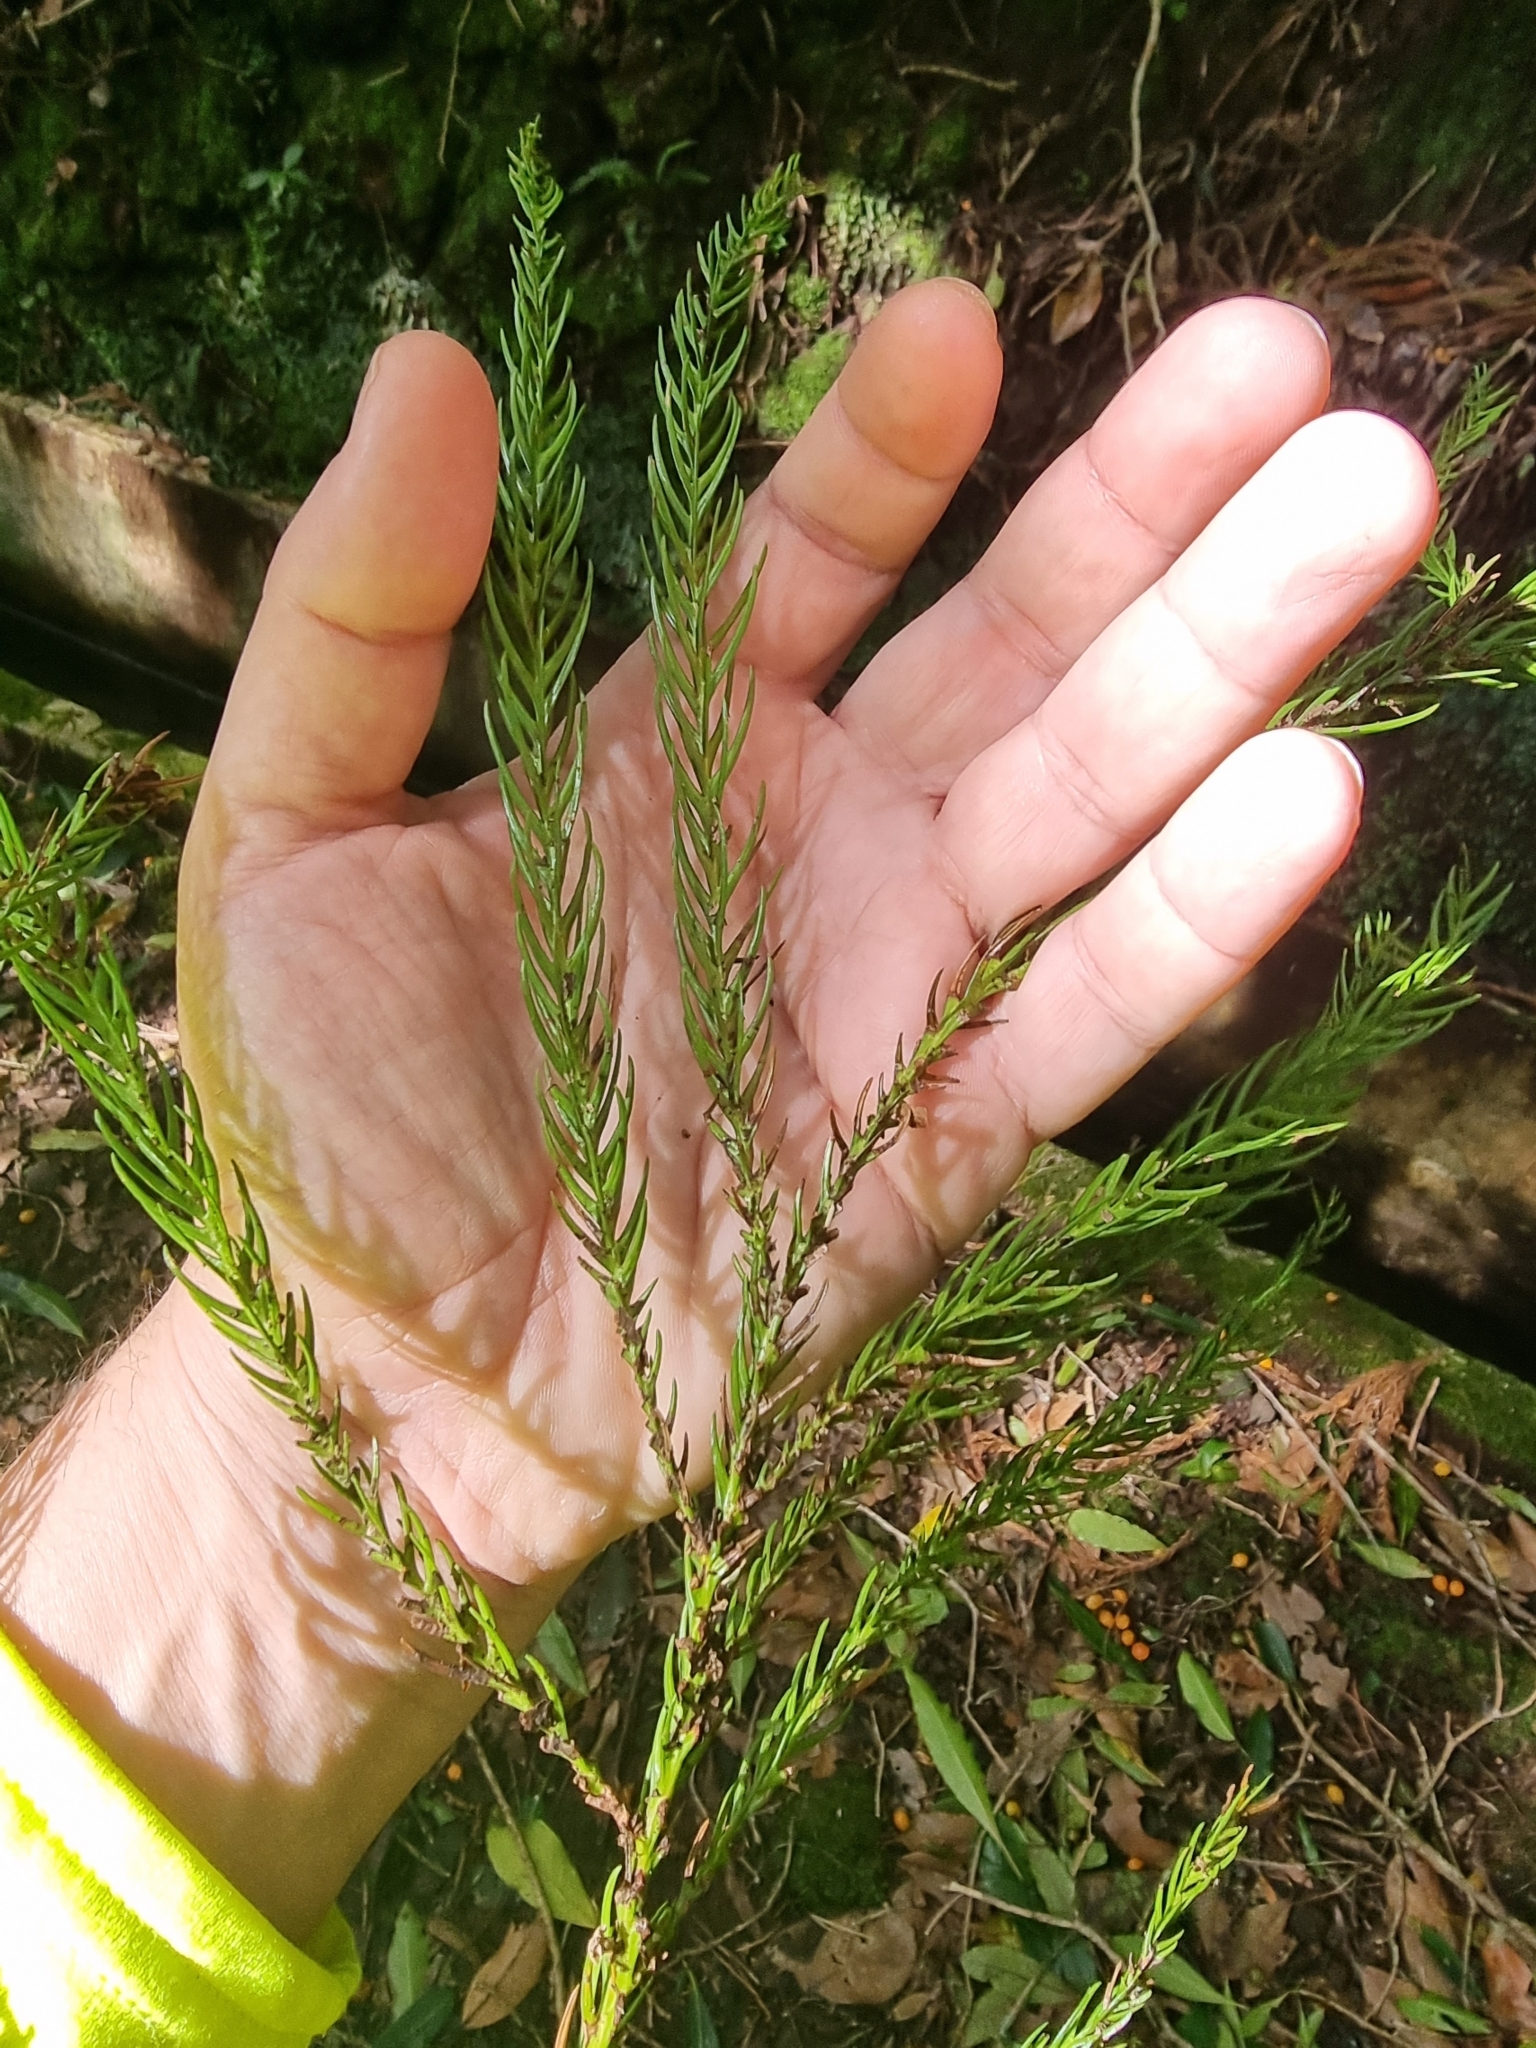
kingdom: Plantae
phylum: Tracheophyta
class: Pinopsida
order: Pinales
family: Cupressaceae
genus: Cryptomeria
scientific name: Cryptomeria japonica
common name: Japanese cedar
